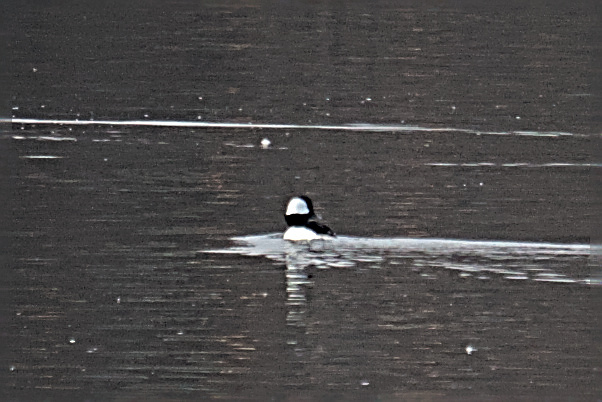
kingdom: Animalia
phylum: Chordata
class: Aves
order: Anseriformes
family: Anatidae
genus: Bucephala
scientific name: Bucephala albeola
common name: Bufflehead
